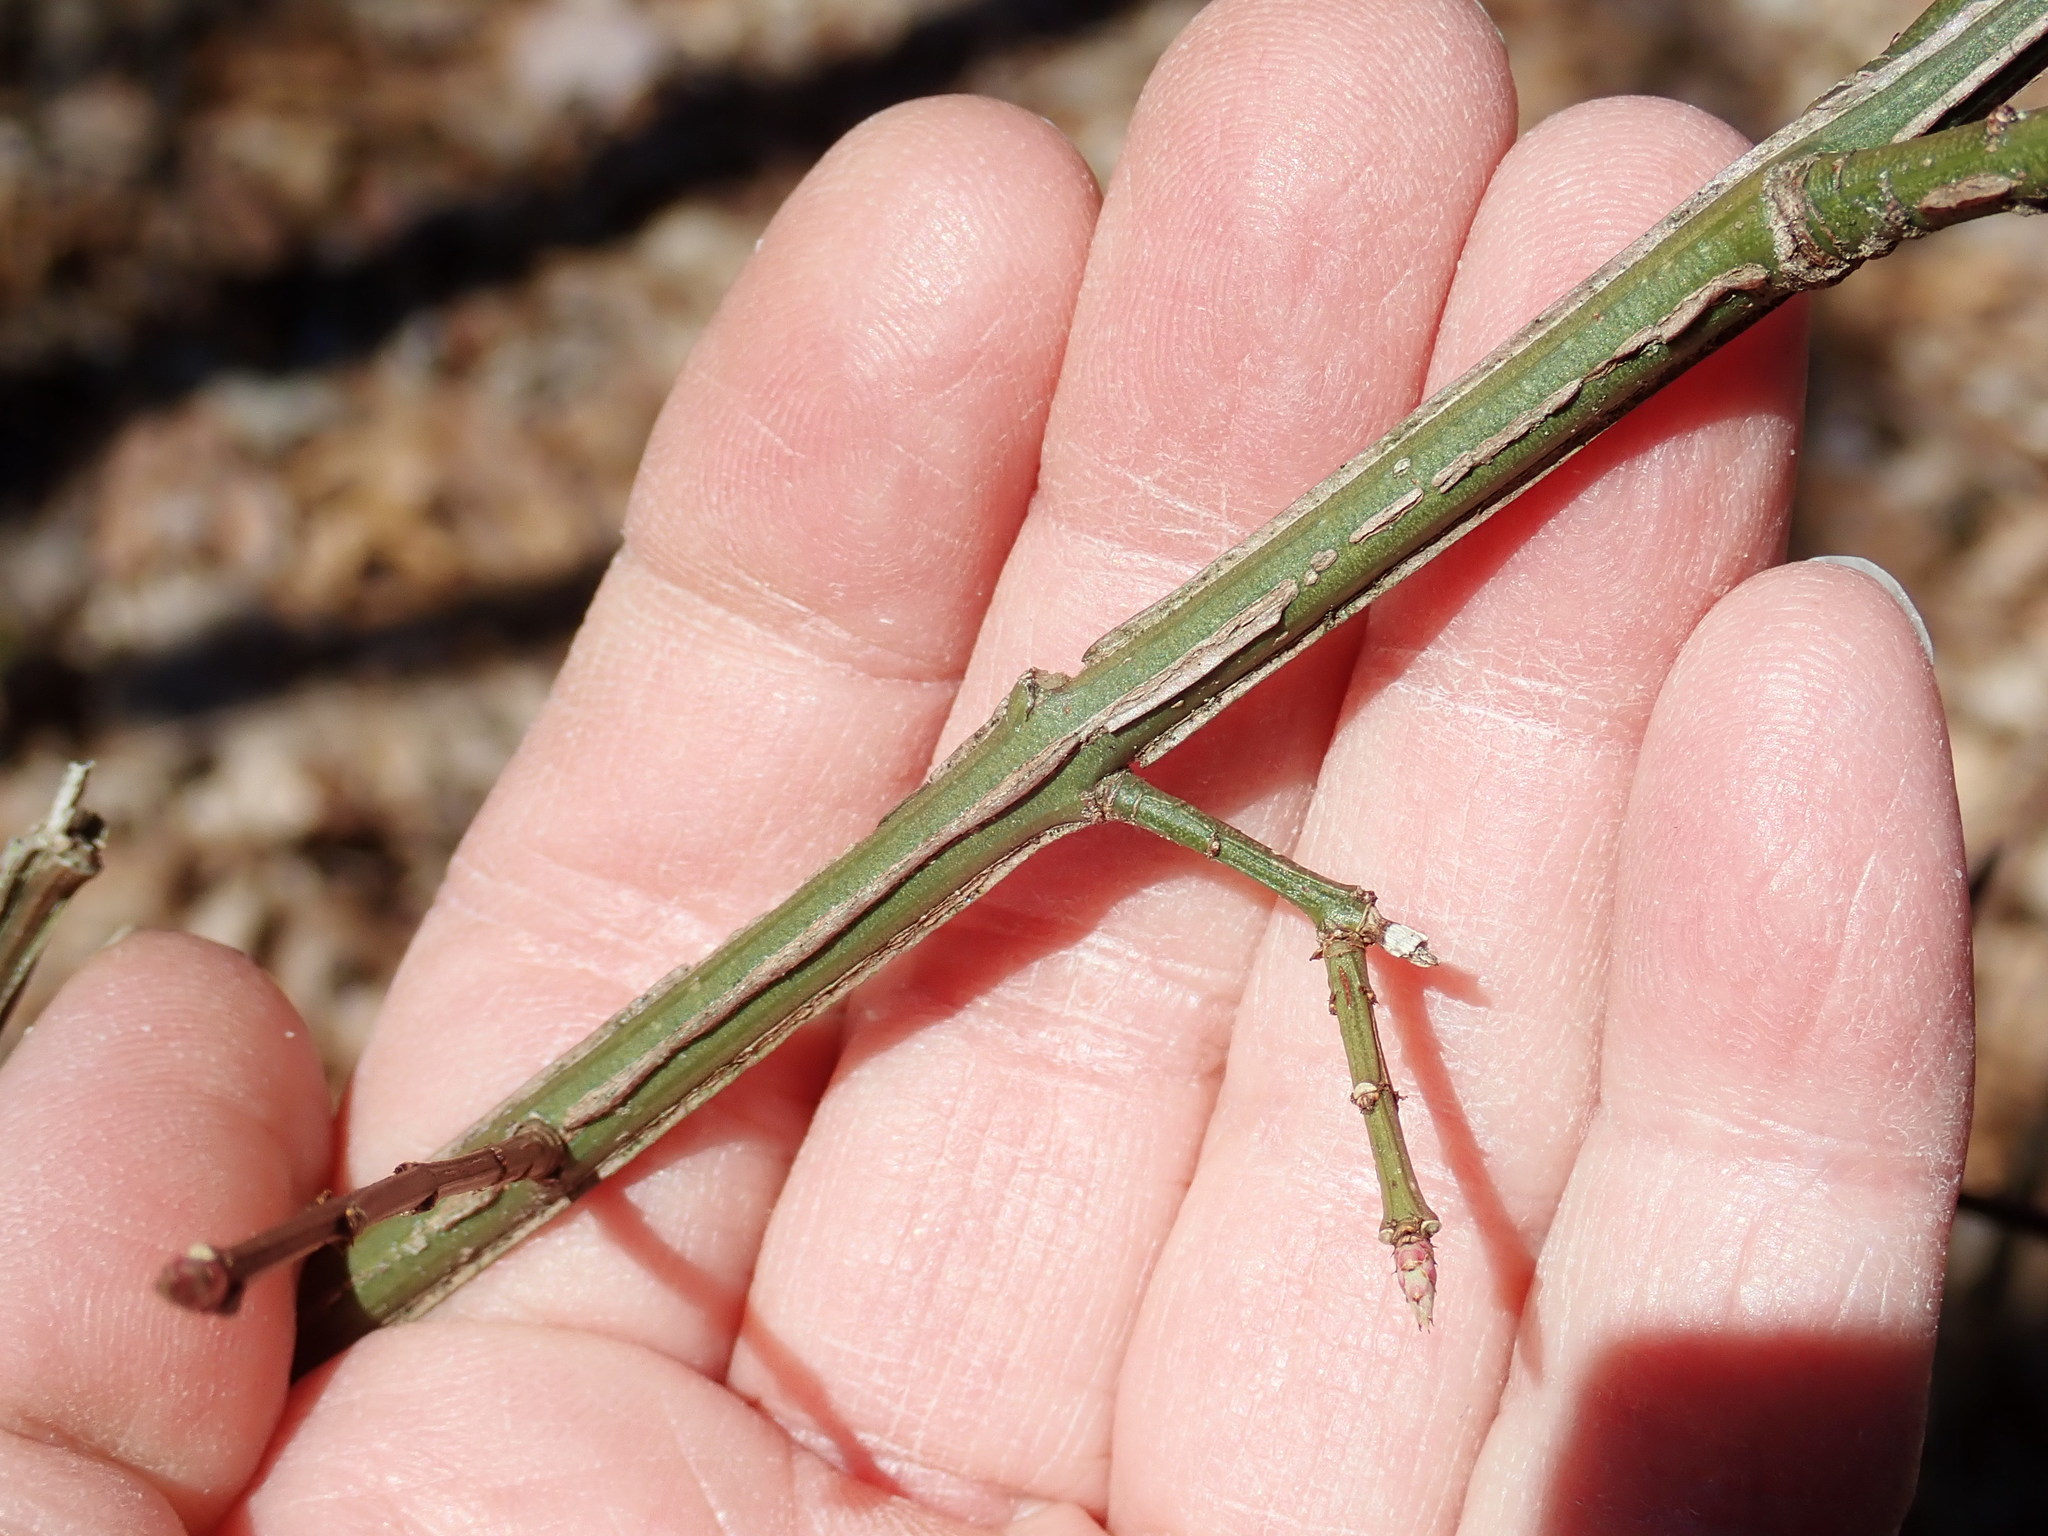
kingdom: Plantae
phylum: Tracheophyta
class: Magnoliopsida
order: Celastrales
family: Celastraceae
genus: Euonymus
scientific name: Euonymus alatus
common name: Winged euonymus
